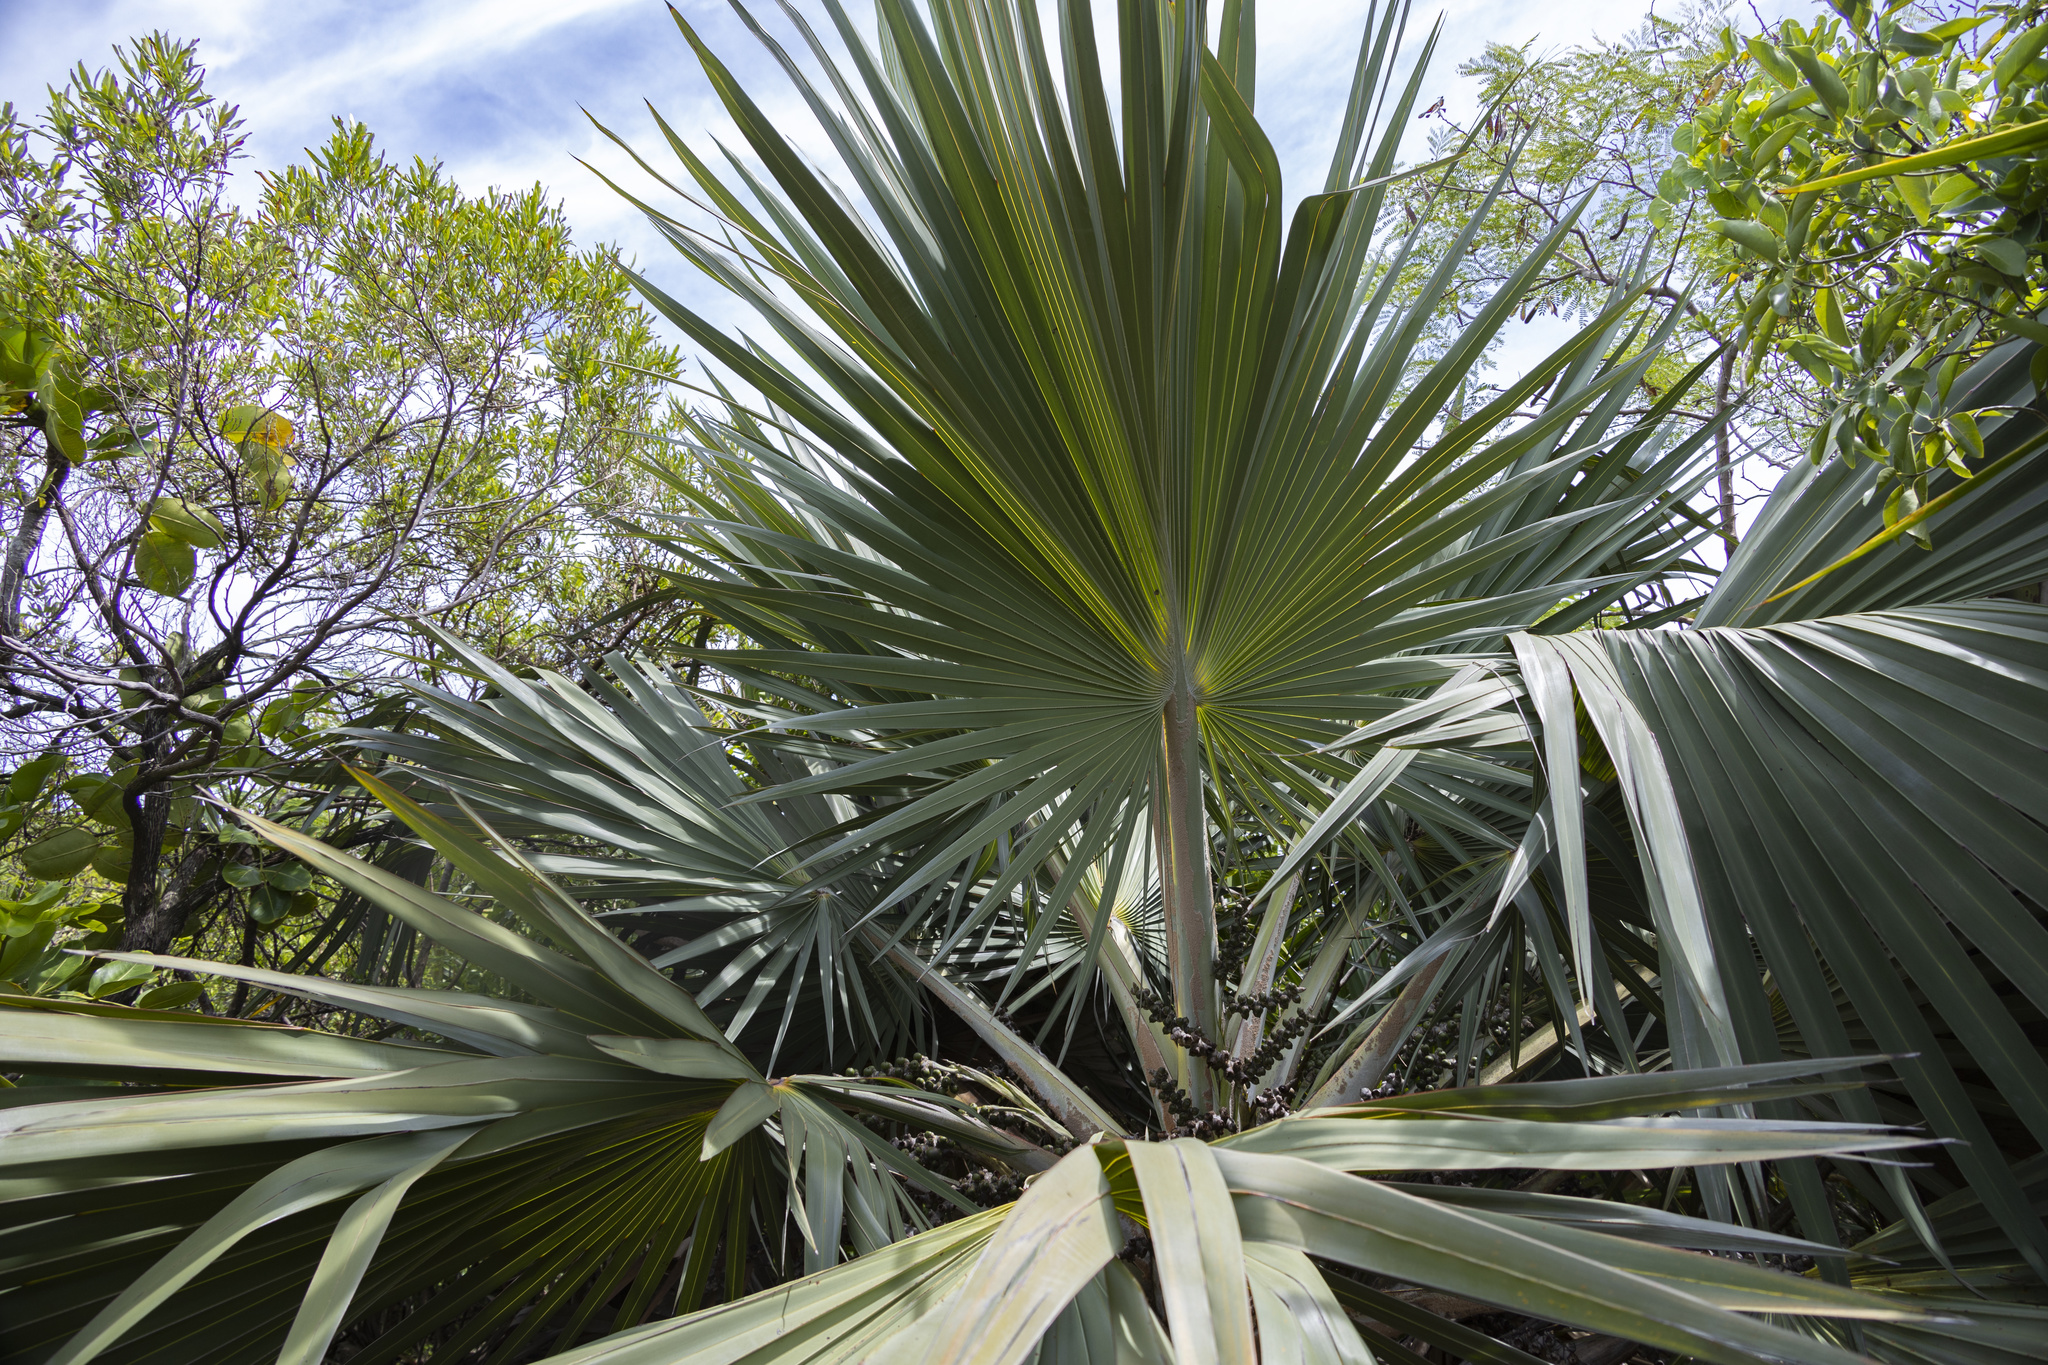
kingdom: Plantae
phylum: Tracheophyta
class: Liliopsida
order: Arecales
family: Arecaceae
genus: Latania
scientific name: Latania loddigesii
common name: Blue latan
